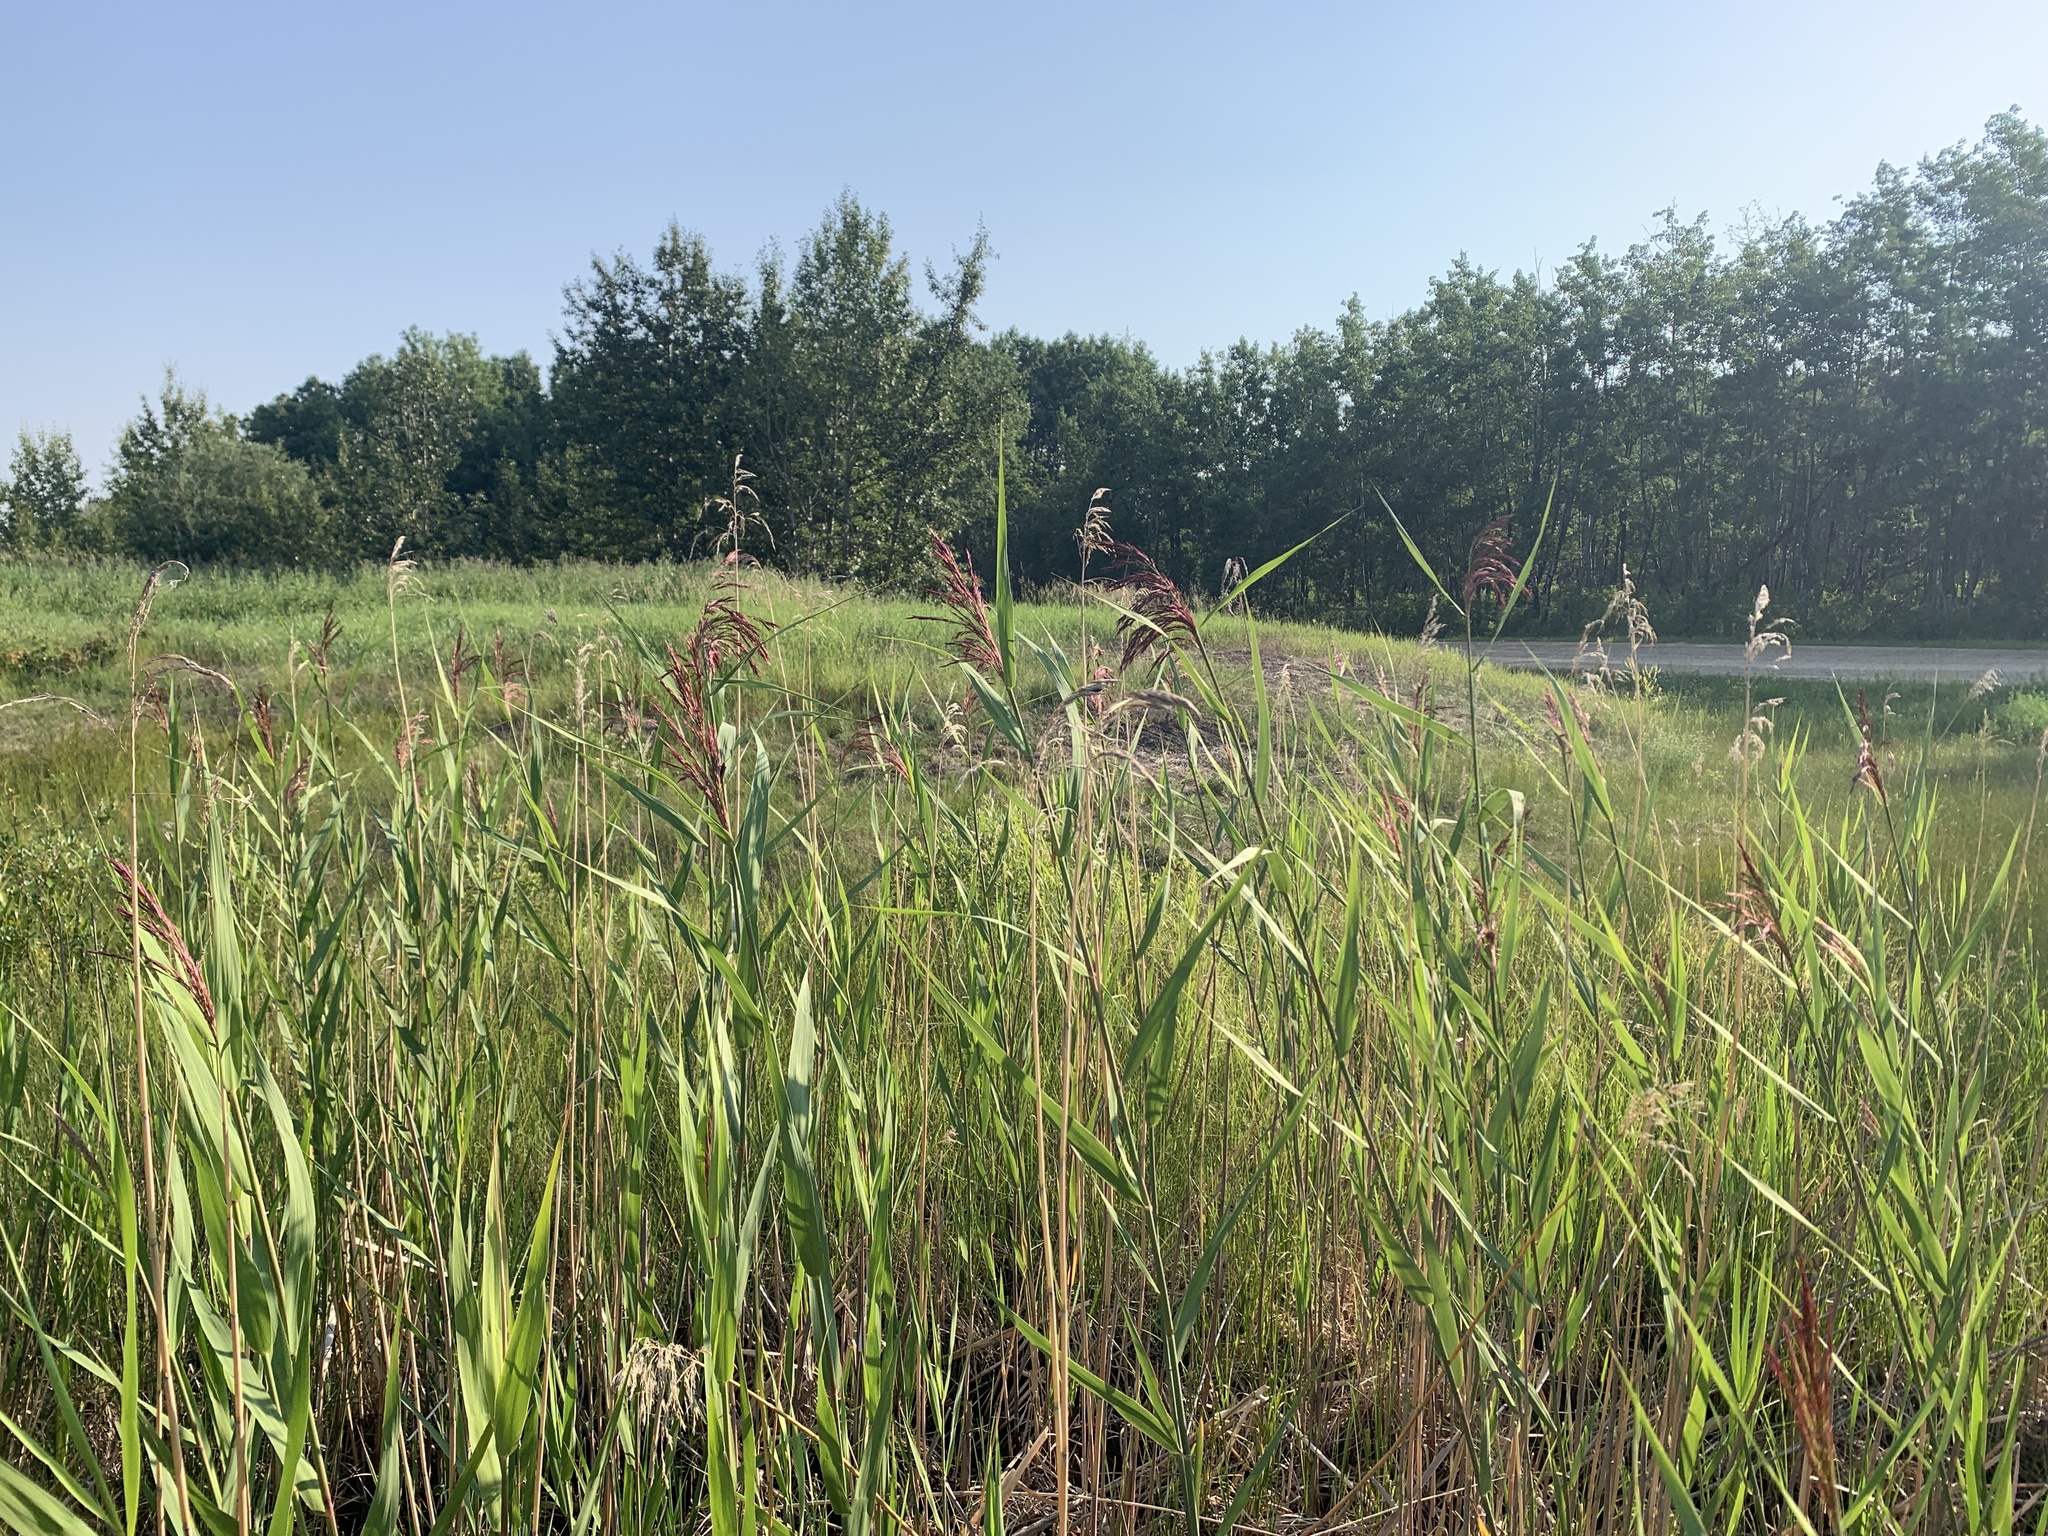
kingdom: Plantae
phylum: Tracheophyta
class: Liliopsida
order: Poales
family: Poaceae
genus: Phragmites
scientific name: Phragmites australis
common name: Common reed
